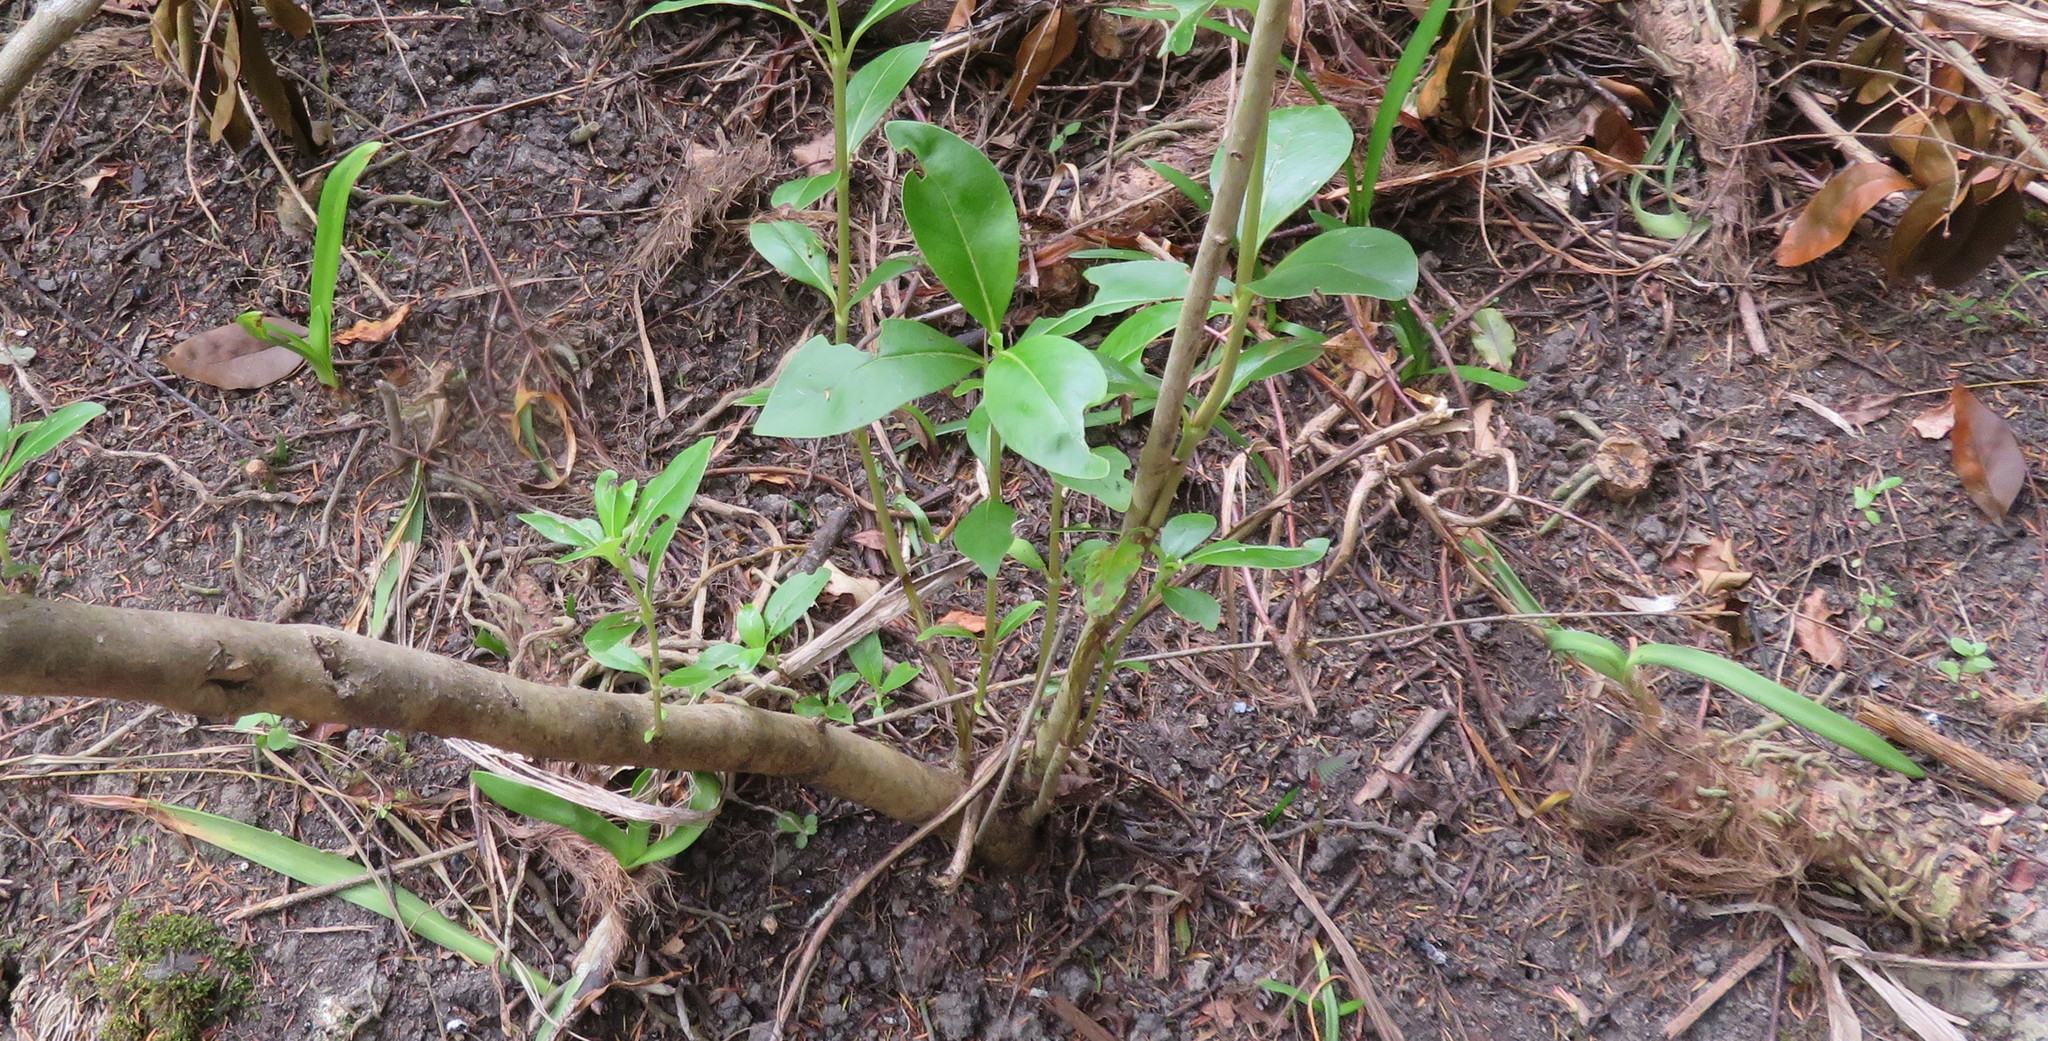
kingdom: Plantae
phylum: Tracheophyta
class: Liliopsida
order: Asparagales
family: Amaryllidaceae
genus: Agapanthus
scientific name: Agapanthus praecox
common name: African-lily
